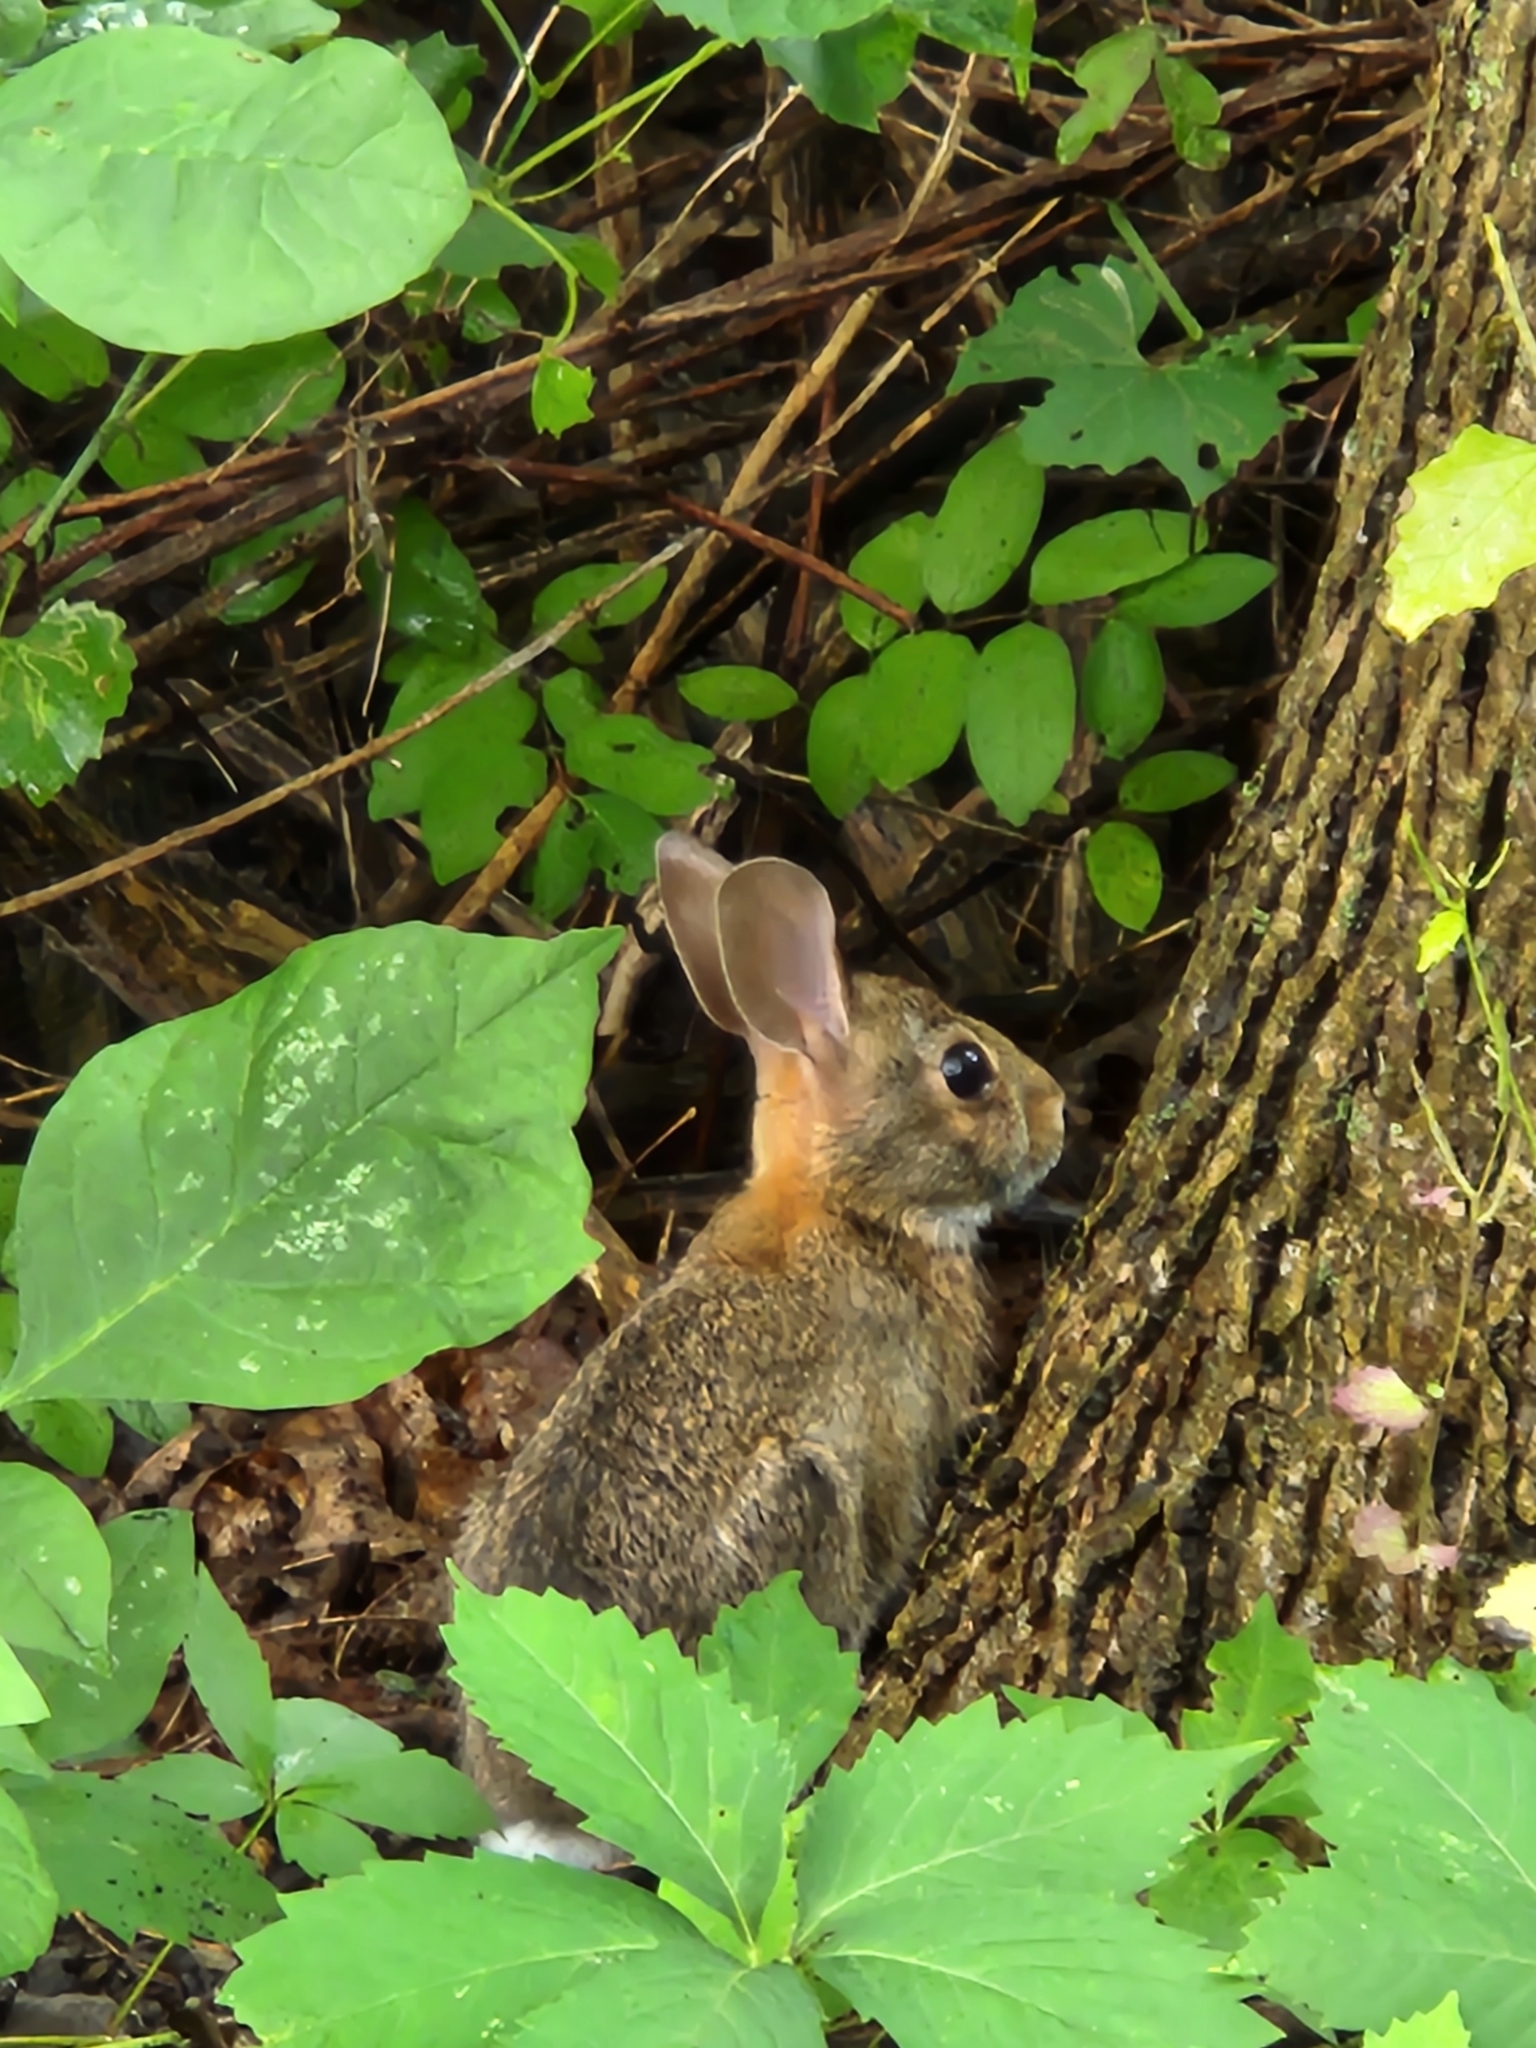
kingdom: Animalia
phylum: Chordata
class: Mammalia
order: Lagomorpha
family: Leporidae
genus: Sylvilagus
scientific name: Sylvilagus floridanus
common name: Eastern cottontail
